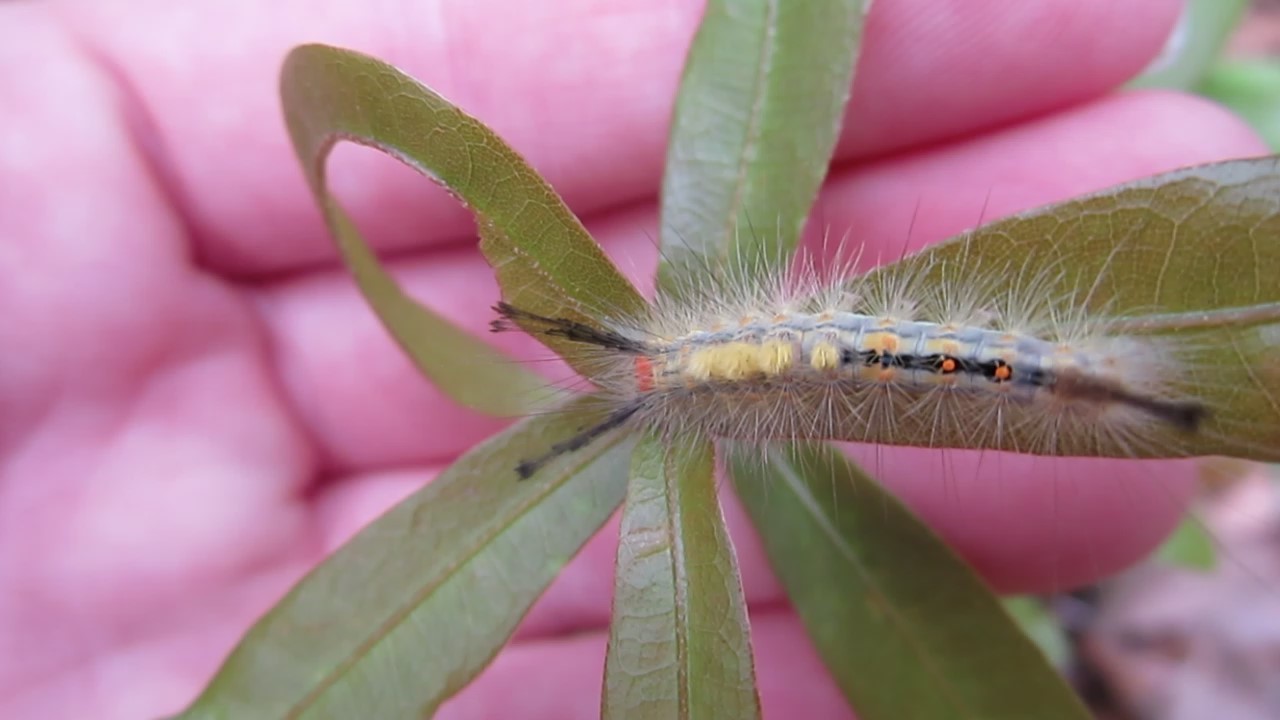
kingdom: Animalia
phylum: Arthropoda
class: Insecta
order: Lepidoptera
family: Erebidae
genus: Orgyia
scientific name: Orgyia detrita
